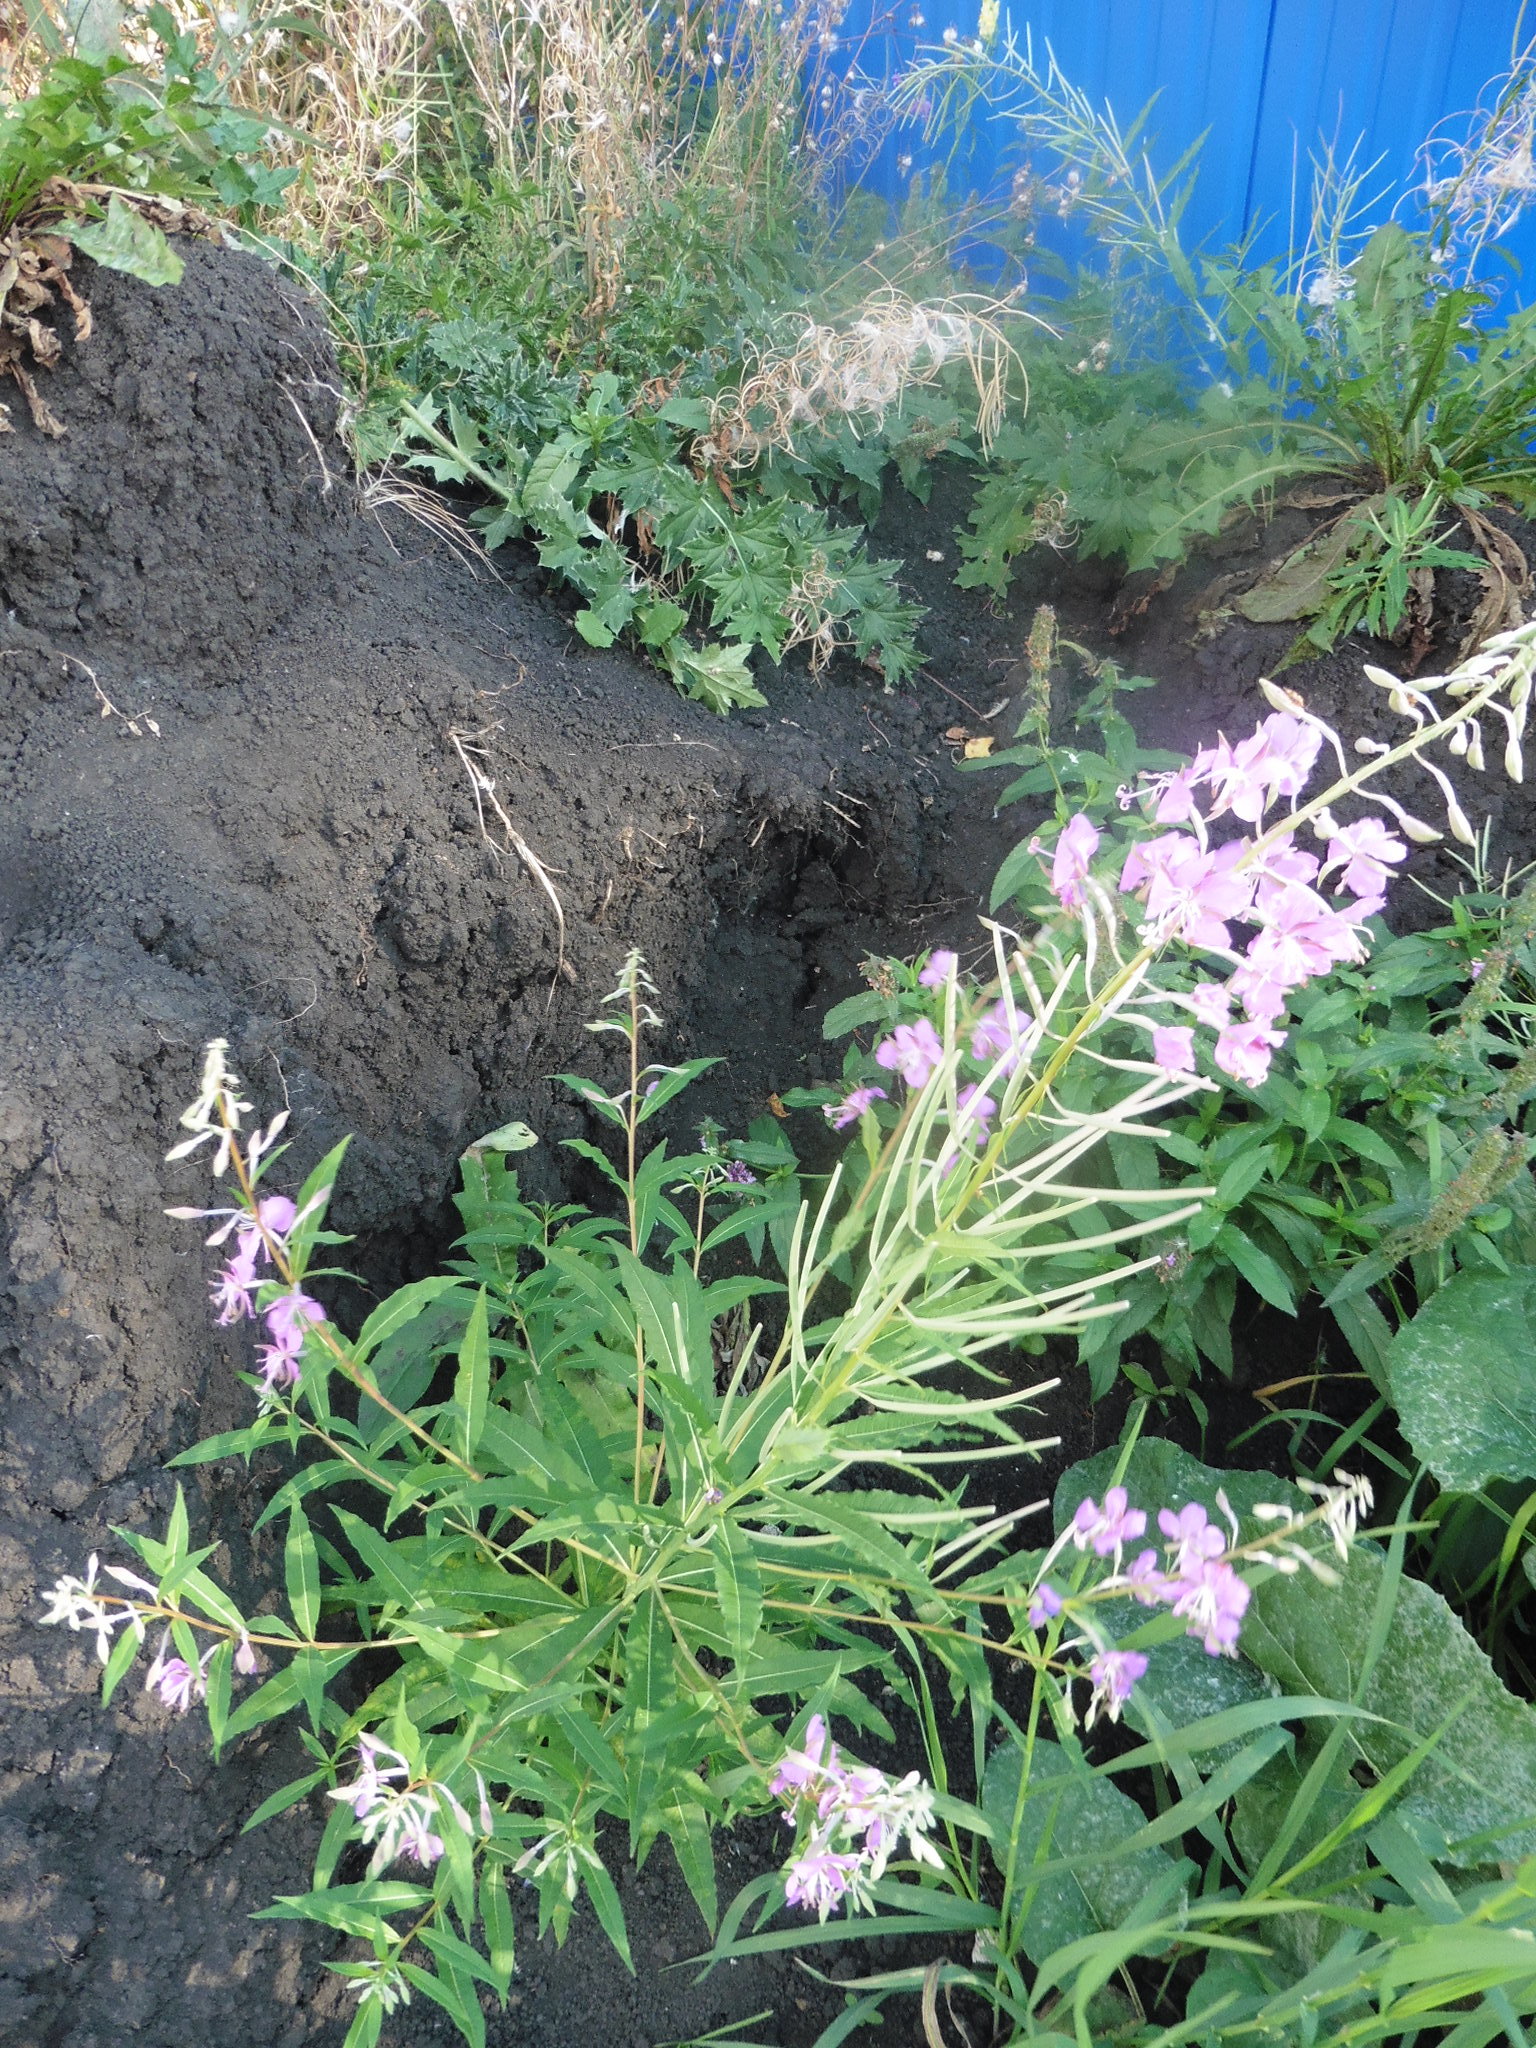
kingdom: Plantae
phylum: Tracheophyta
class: Magnoliopsida
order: Myrtales
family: Onagraceae
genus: Chamaenerion
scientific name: Chamaenerion angustifolium
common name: Fireweed
